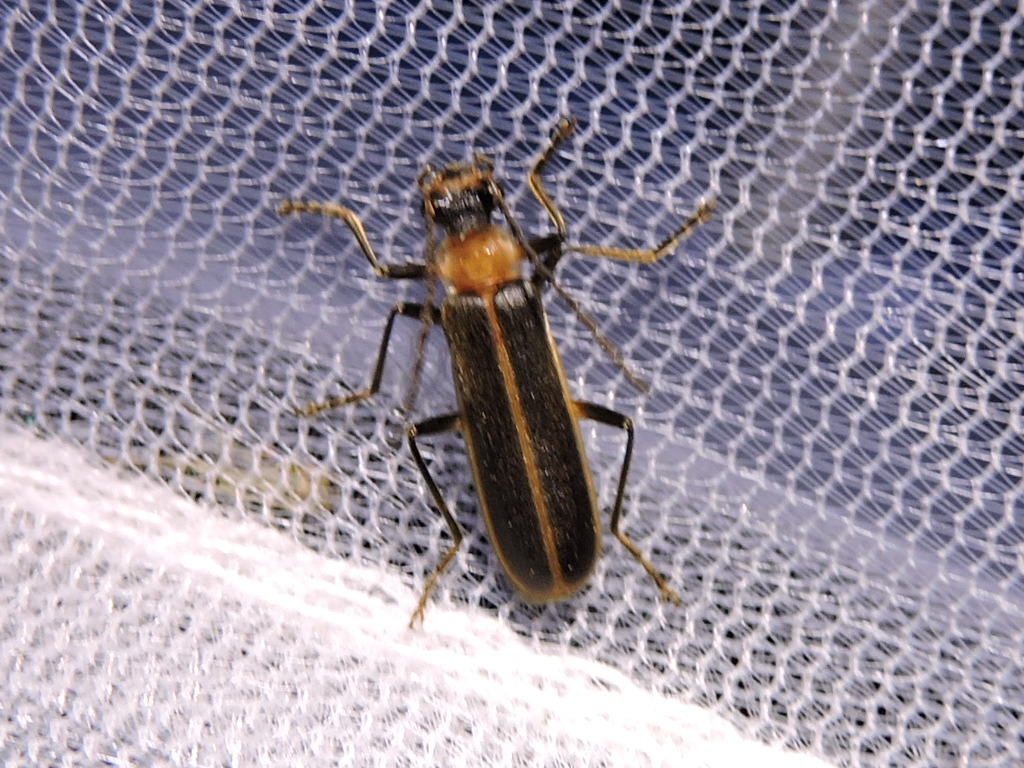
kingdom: Animalia
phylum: Arthropoda
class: Insecta
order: Coleoptera
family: Cantharidae
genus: Podabrus
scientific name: Podabrus flavicollis
